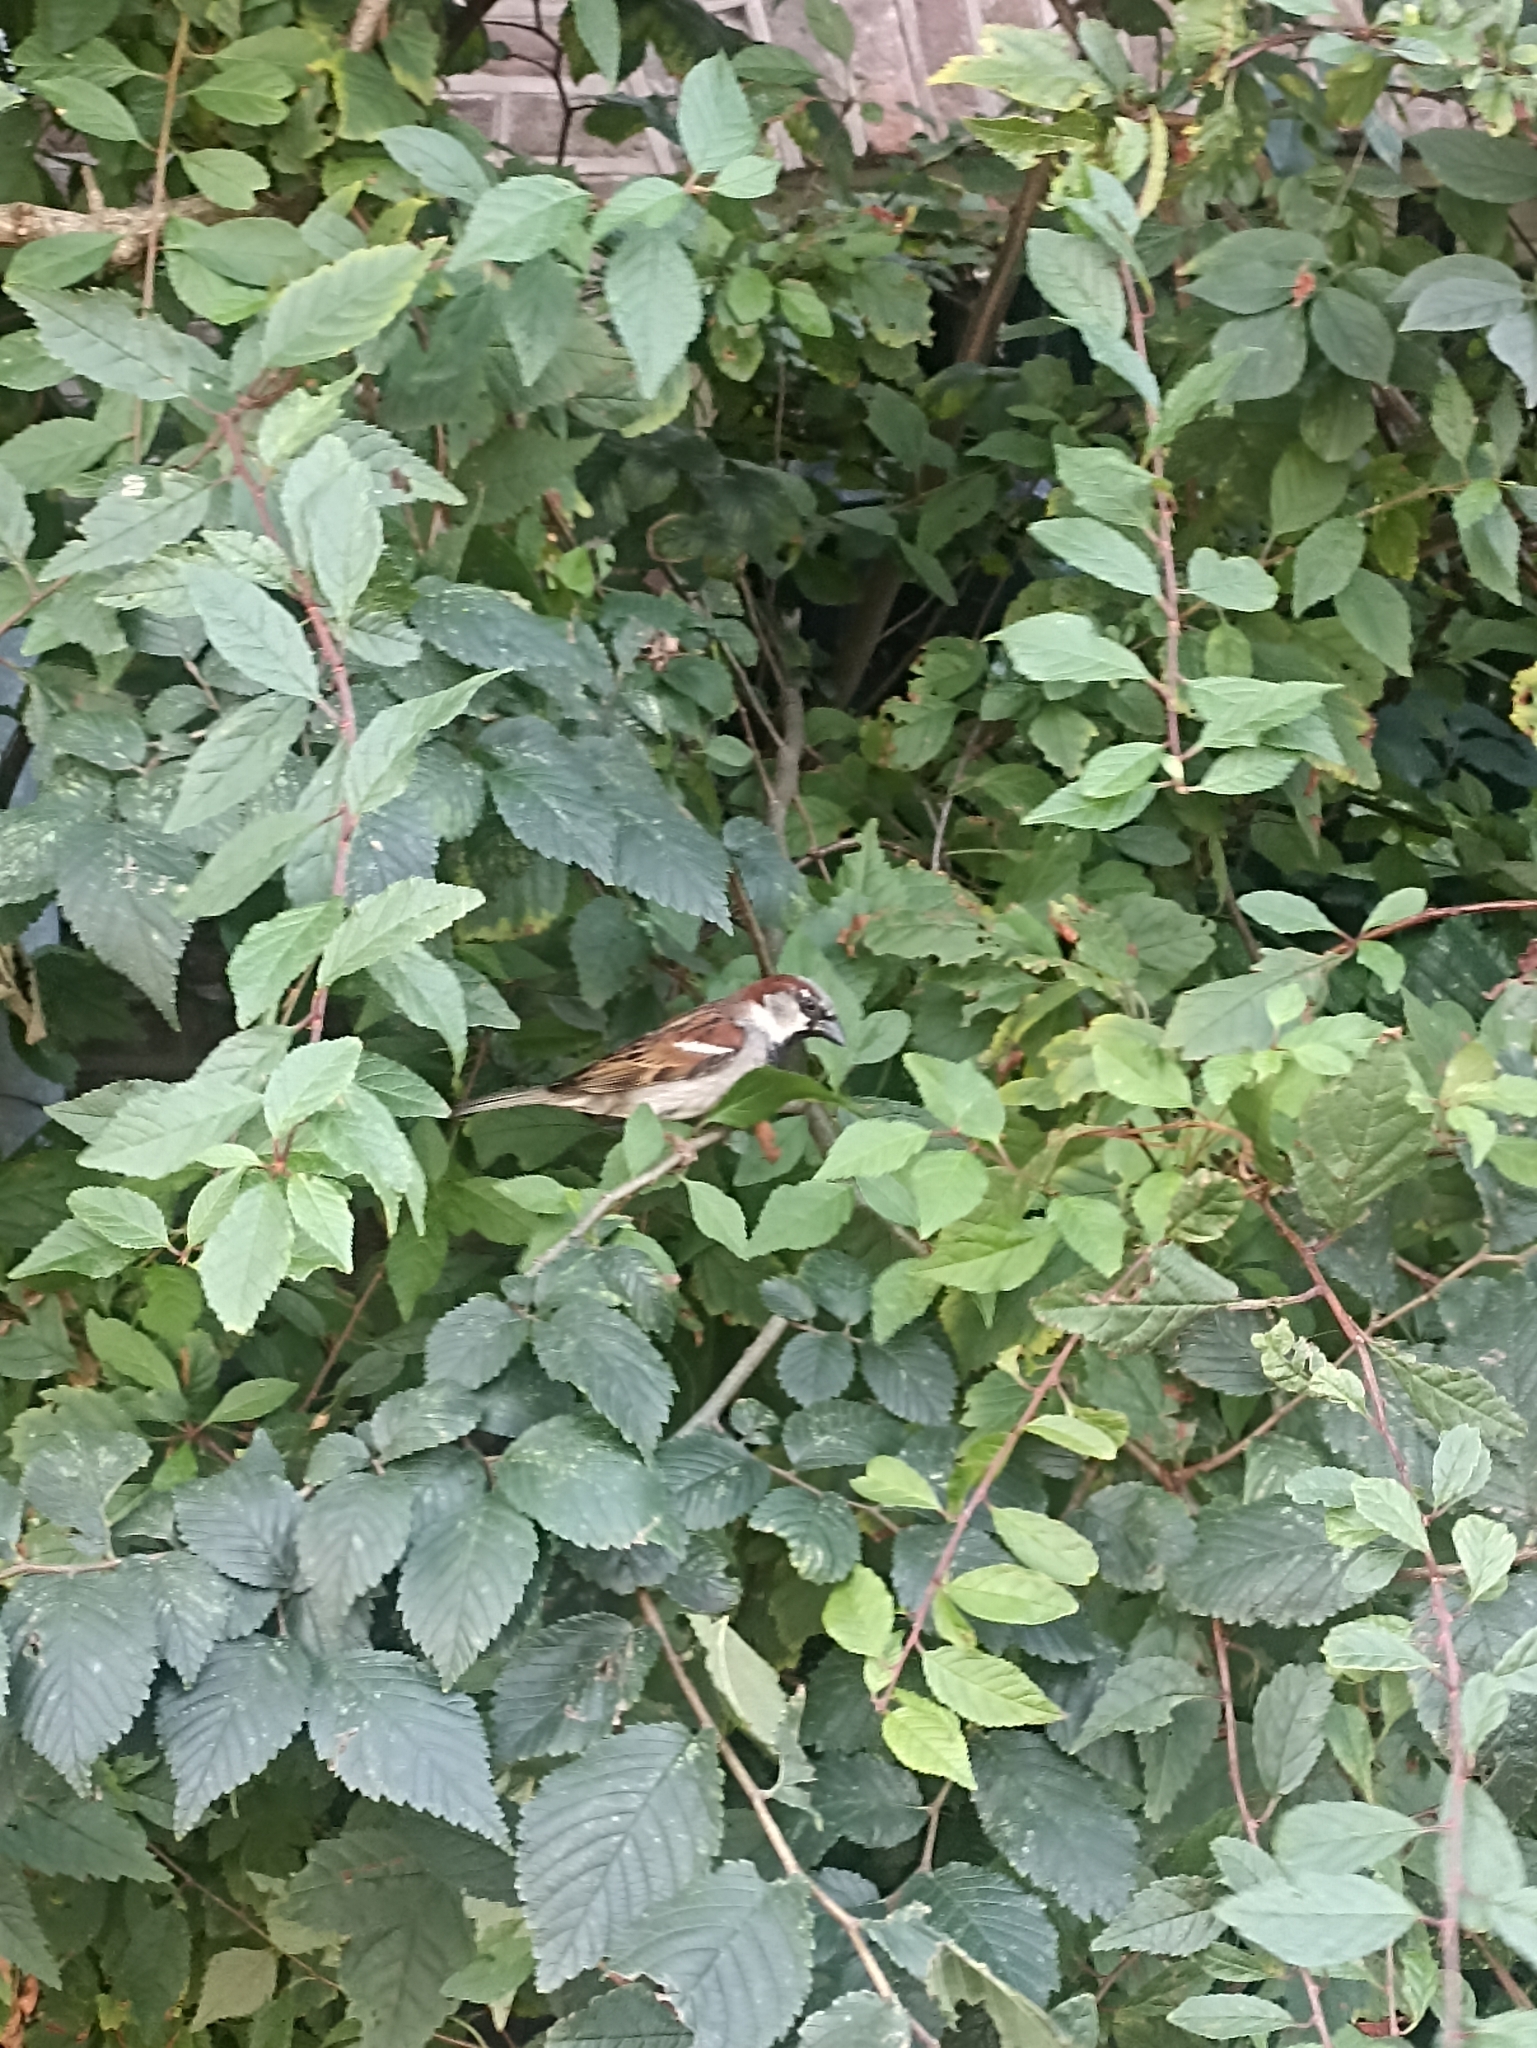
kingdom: Animalia
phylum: Chordata
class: Aves
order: Passeriformes
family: Passeridae
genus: Passer
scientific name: Passer domesticus
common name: House sparrow
